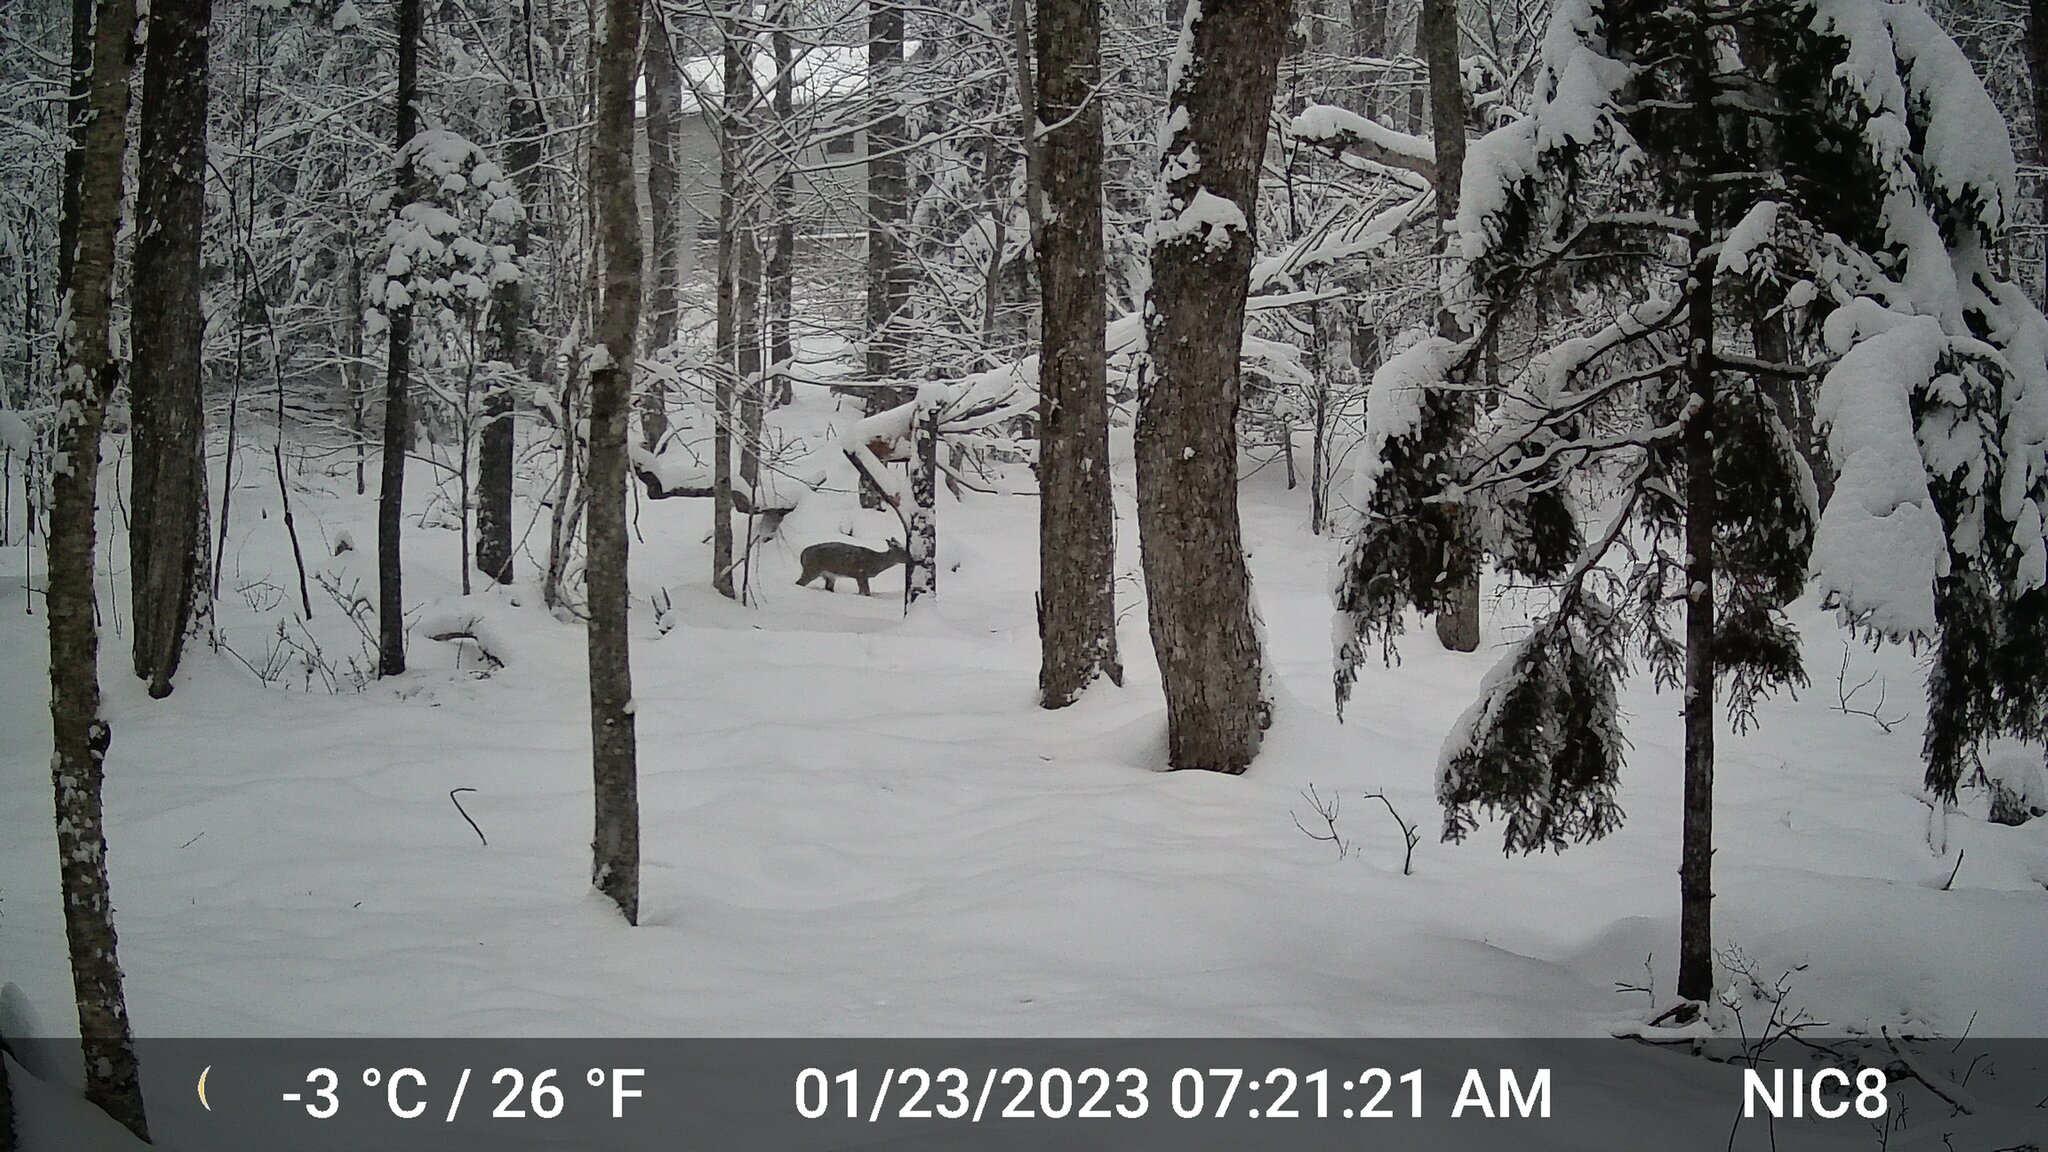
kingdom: Animalia
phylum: Chordata
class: Mammalia
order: Artiodactyla
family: Cervidae
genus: Odocoileus
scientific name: Odocoileus virginianus
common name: White-tailed deer
